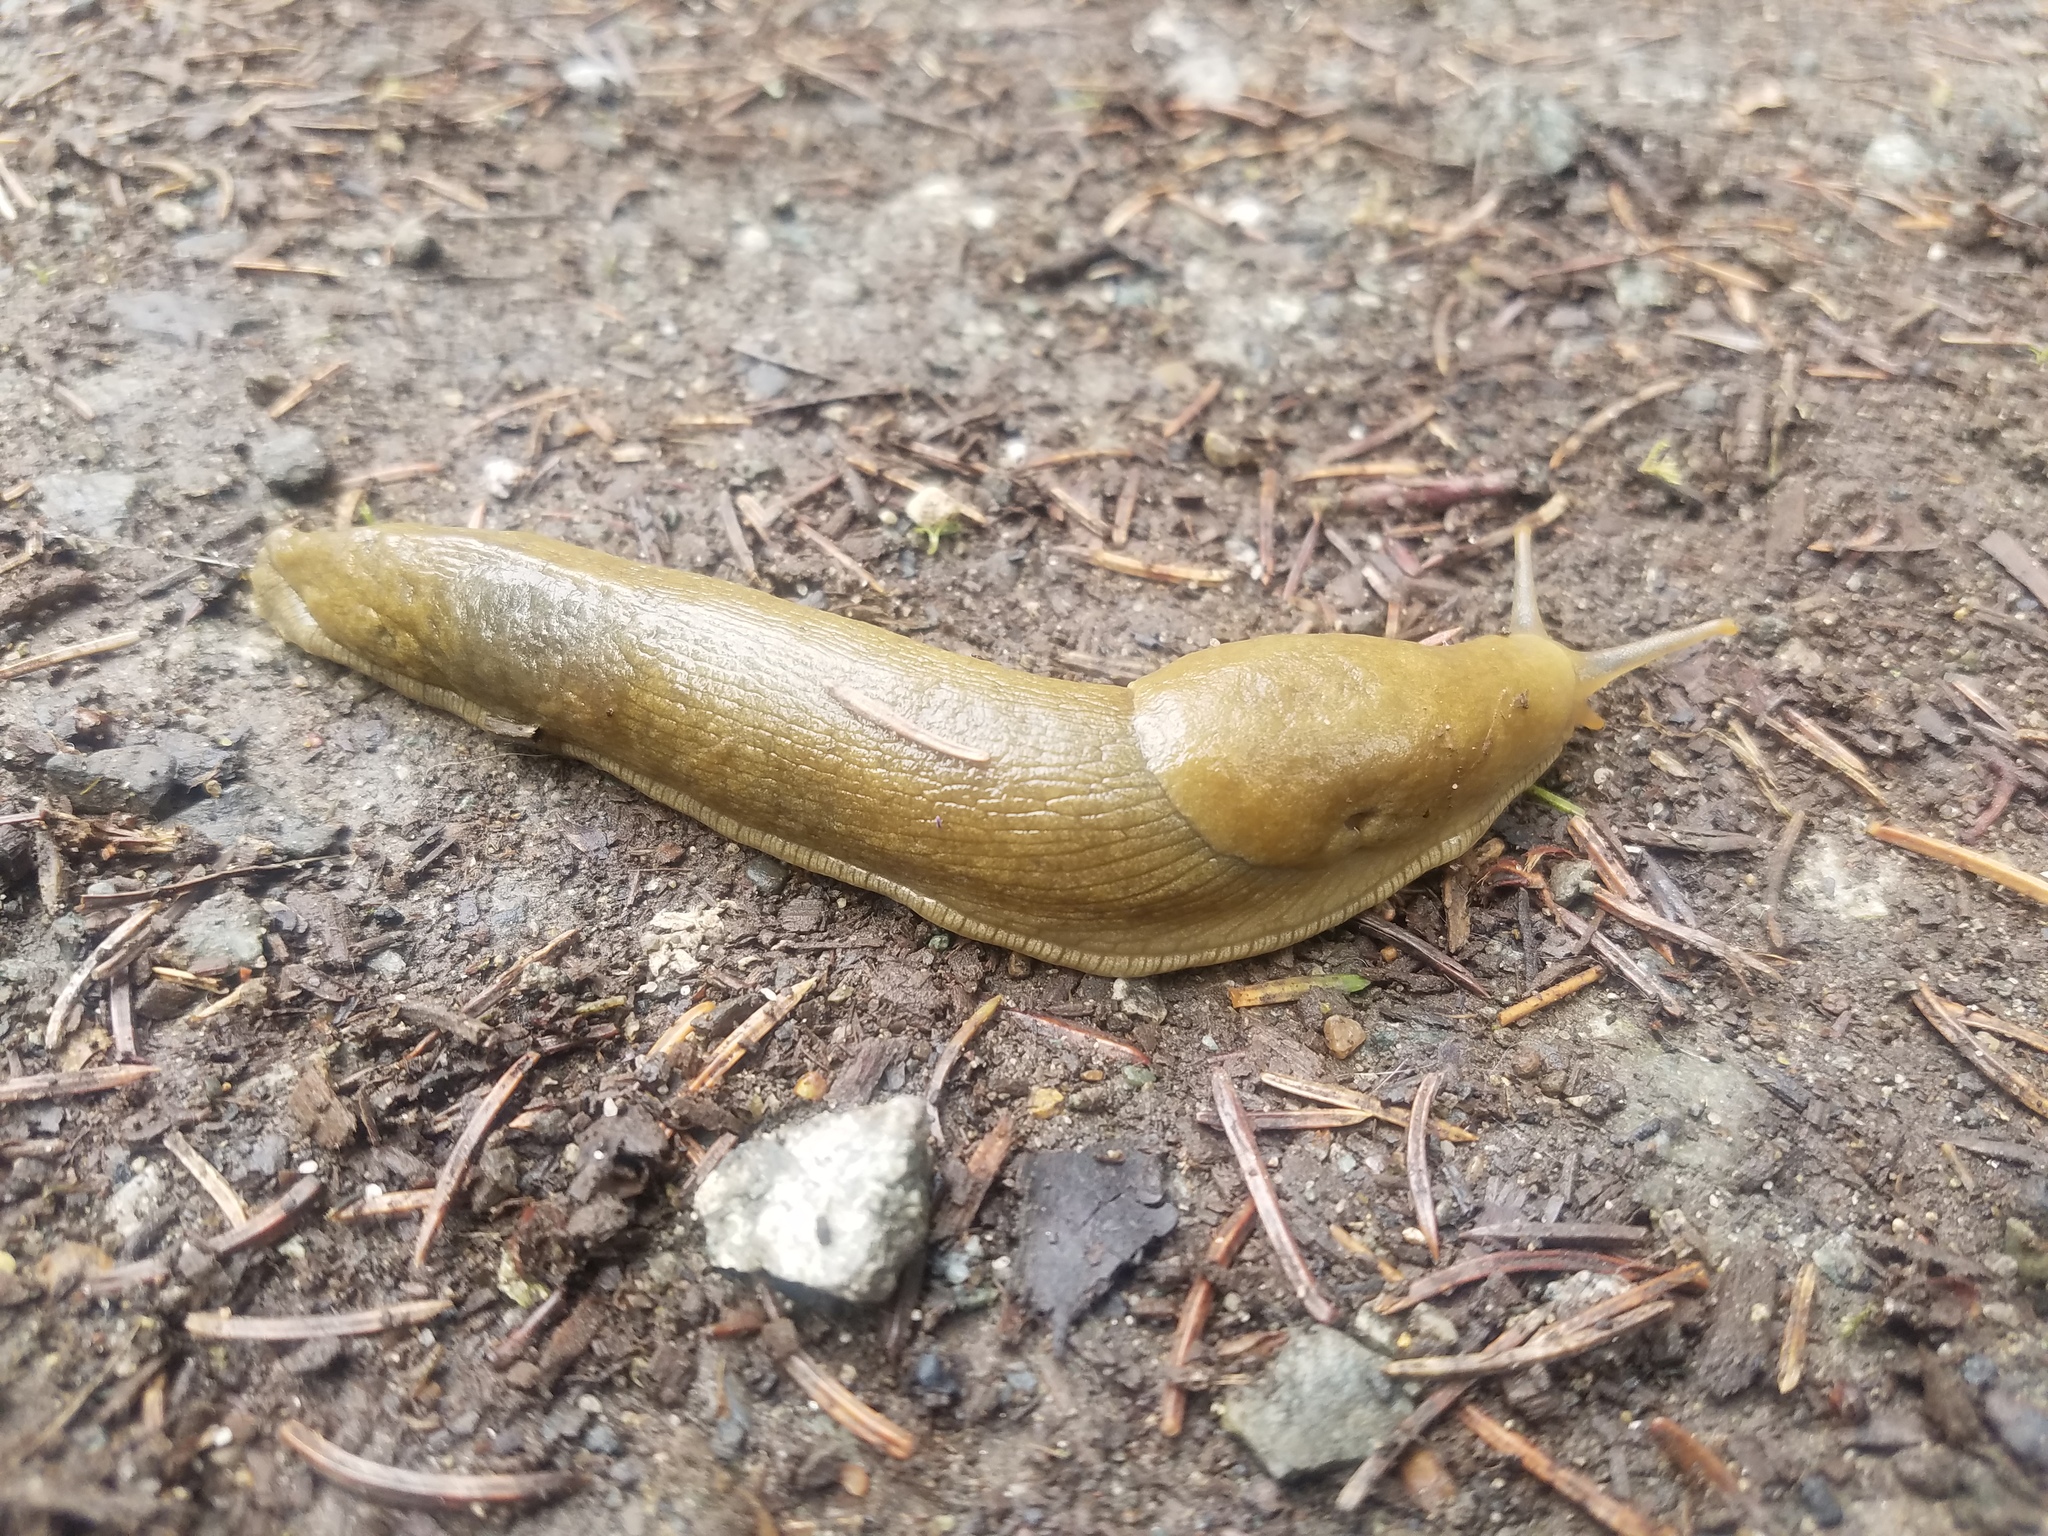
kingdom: Animalia
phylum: Mollusca
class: Gastropoda
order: Stylommatophora
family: Ariolimacidae
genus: Ariolimax
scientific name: Ariolimax columbianus
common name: Pacific banana slug
